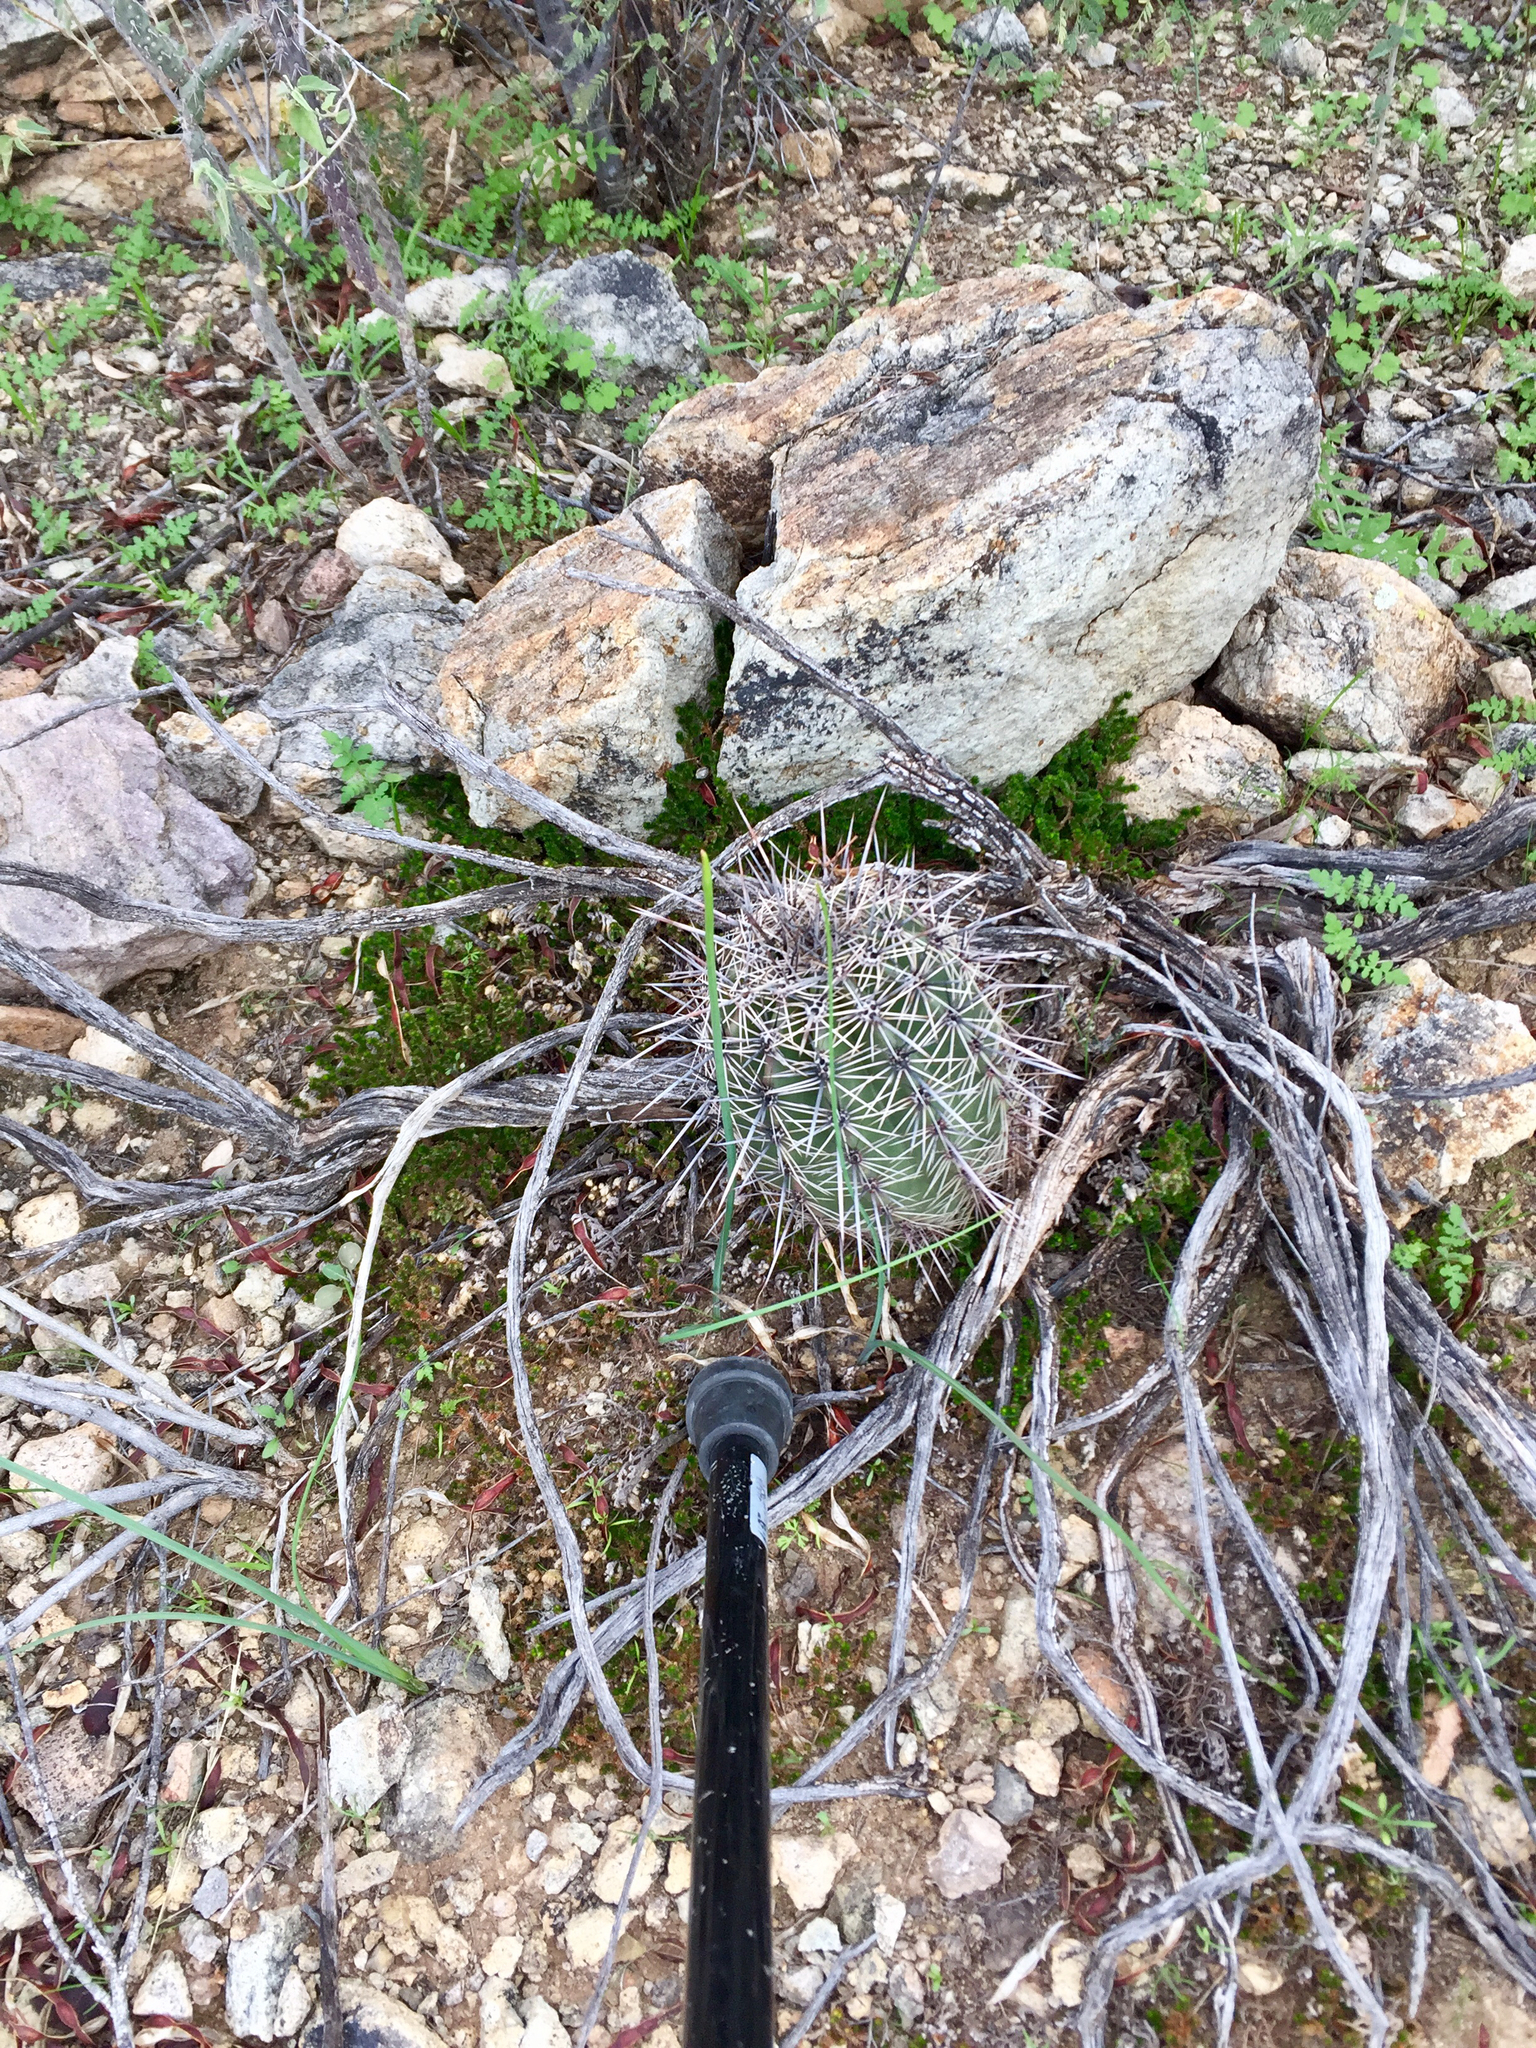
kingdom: Plantae
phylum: Tracheophyta
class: Magnoliopsida
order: Caryophyllales
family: Cactaceae
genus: Carnegiea
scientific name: Carnegiea gigantea
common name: Saguaro
